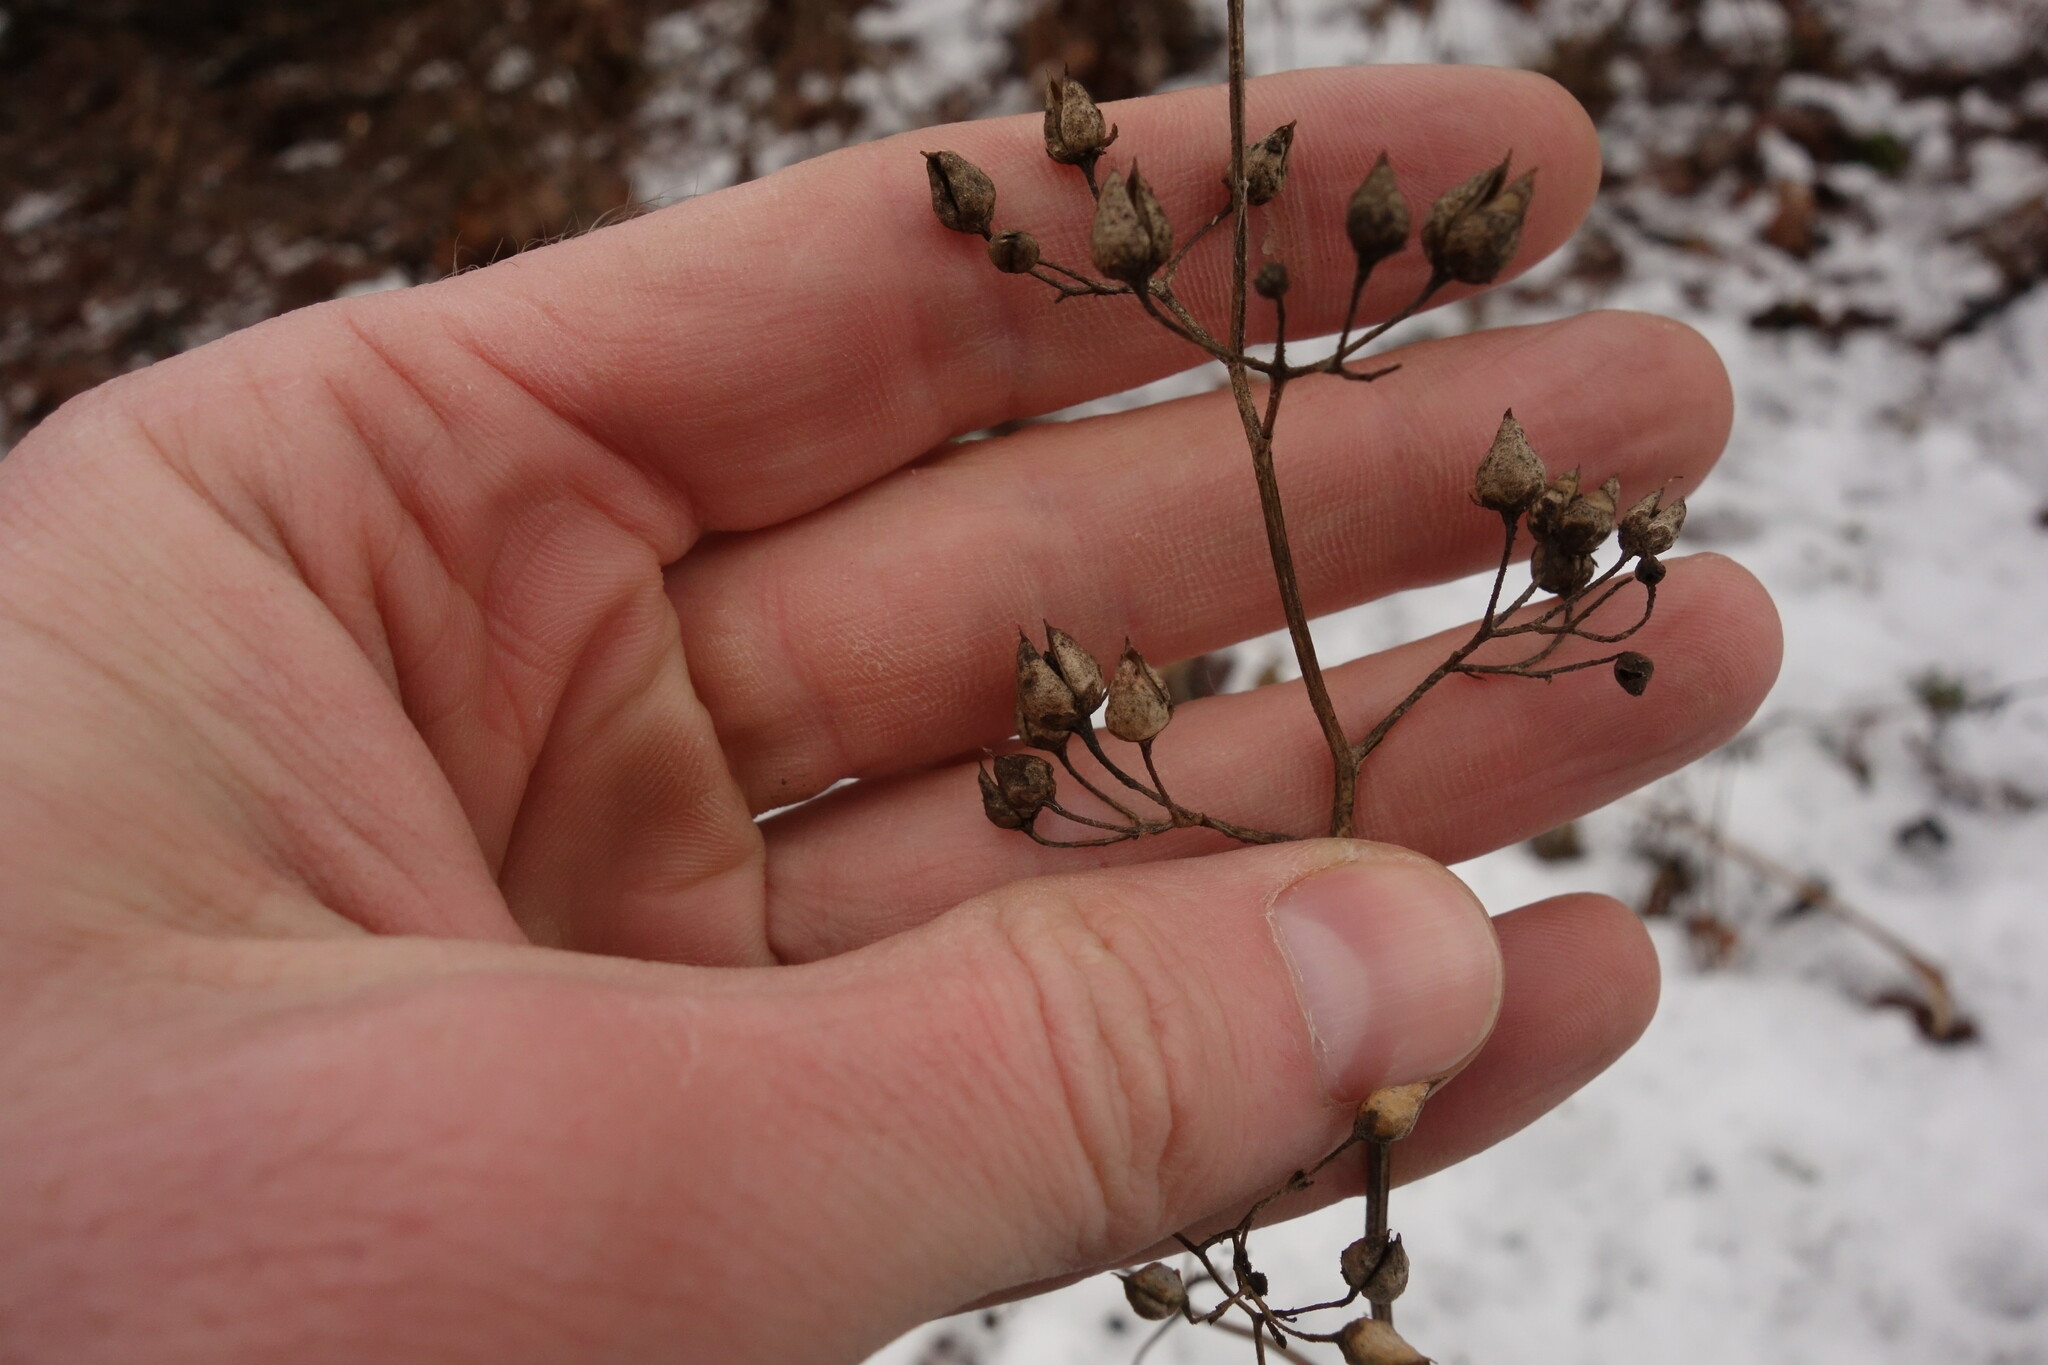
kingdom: Plantae
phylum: Tracheophyta
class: Magnoliopsida
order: Lamiales
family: Scrophulariaceae
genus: Scrophularia
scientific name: Scrophularia nodosa
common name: Common figwort
